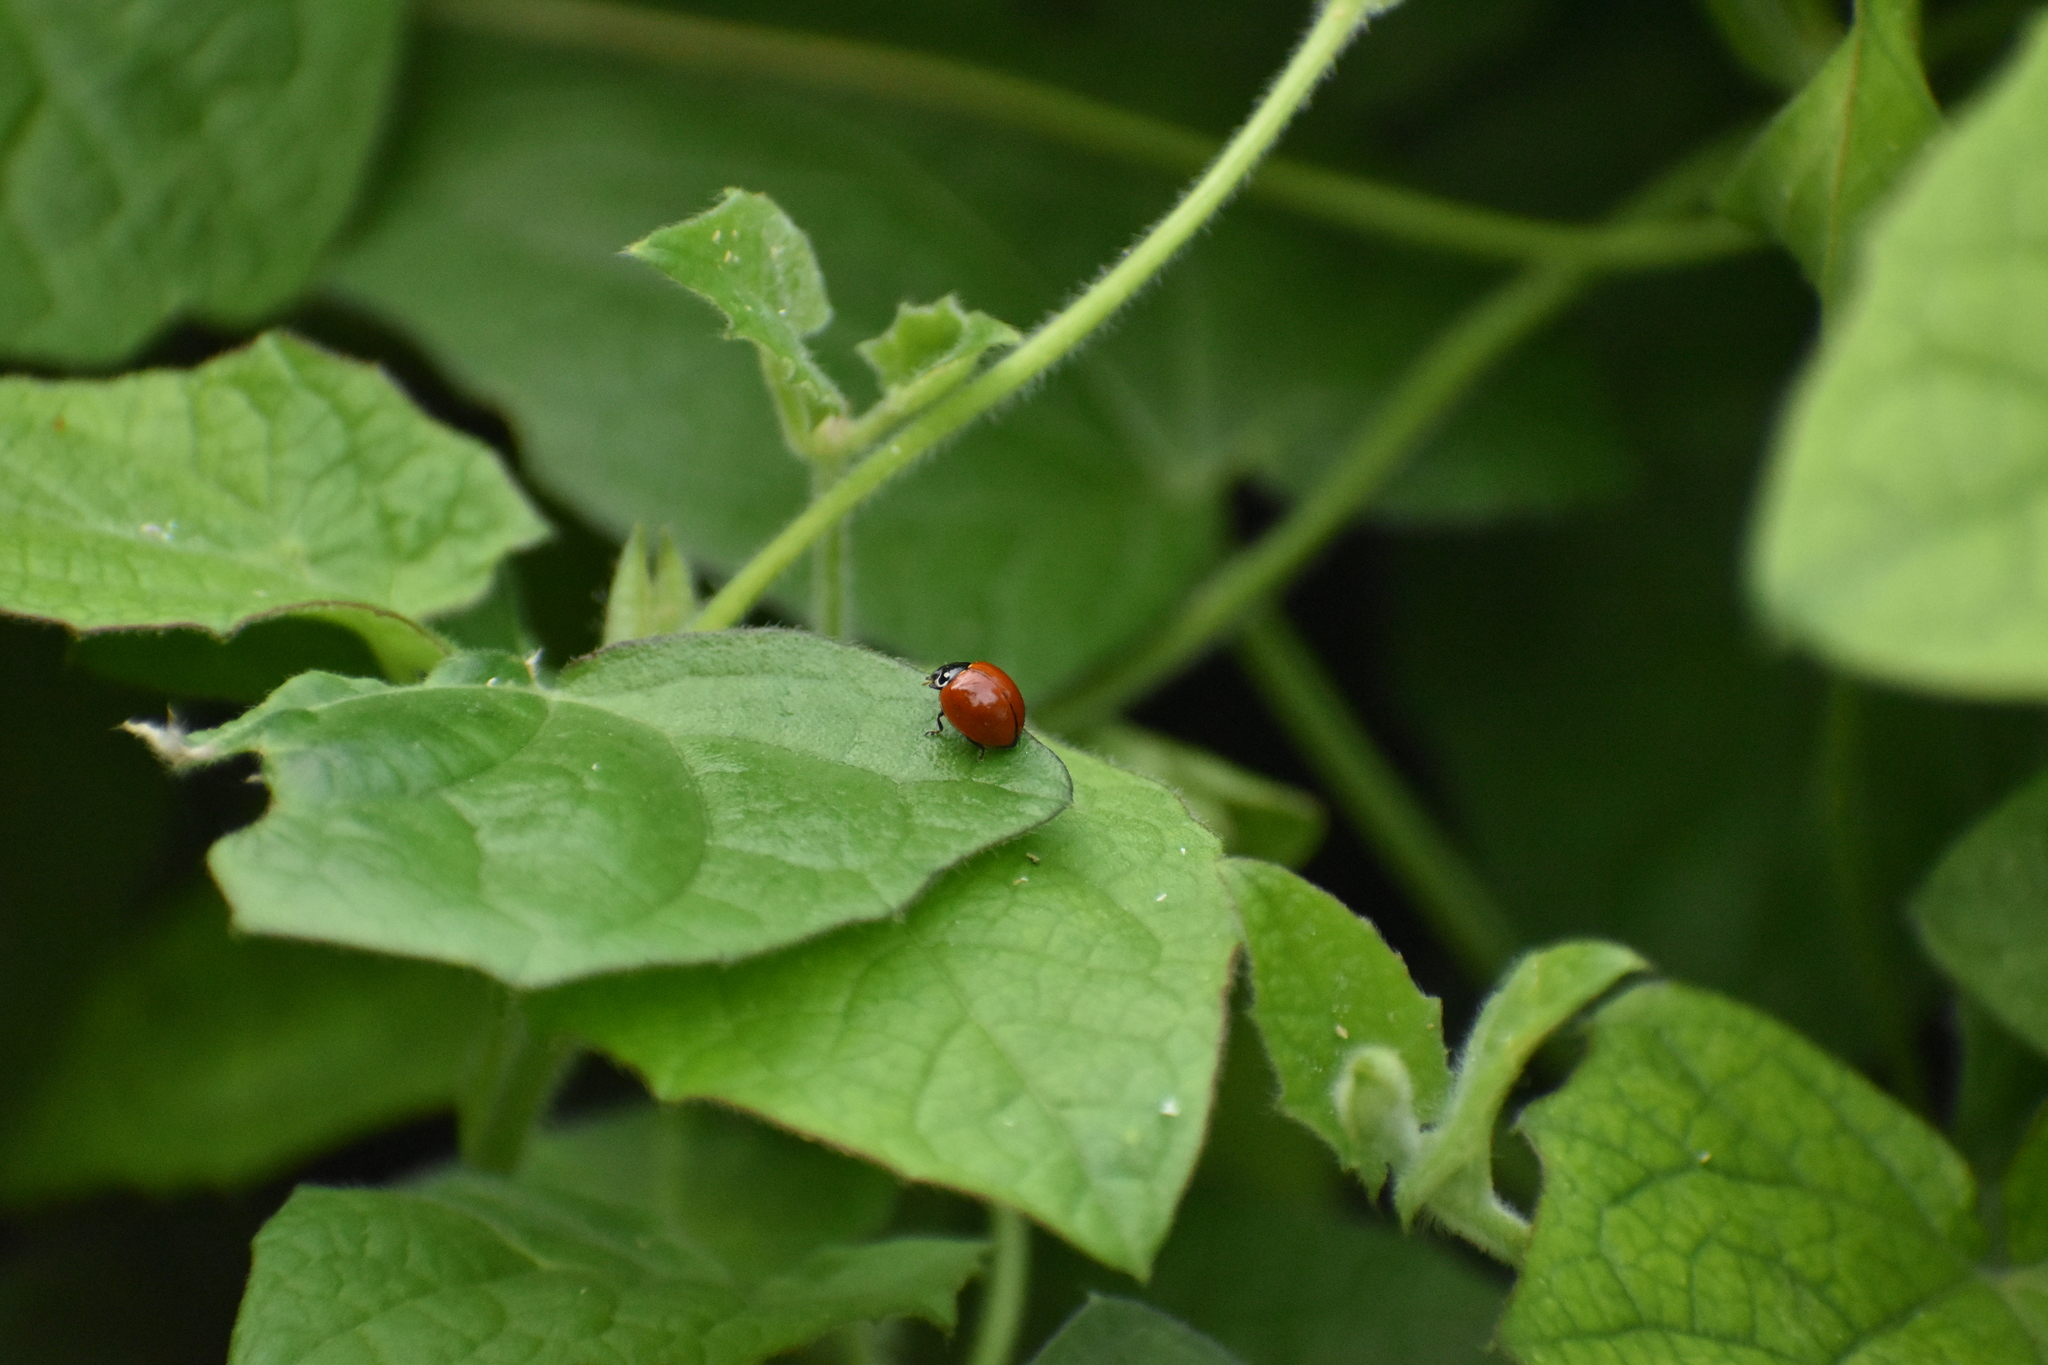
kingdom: Animalia
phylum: Arthropoda
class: Insecta
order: Coleoptera
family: Coccinellidae
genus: Cycloneda
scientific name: Cycloneda sanguinea
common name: Ladybird beetle
